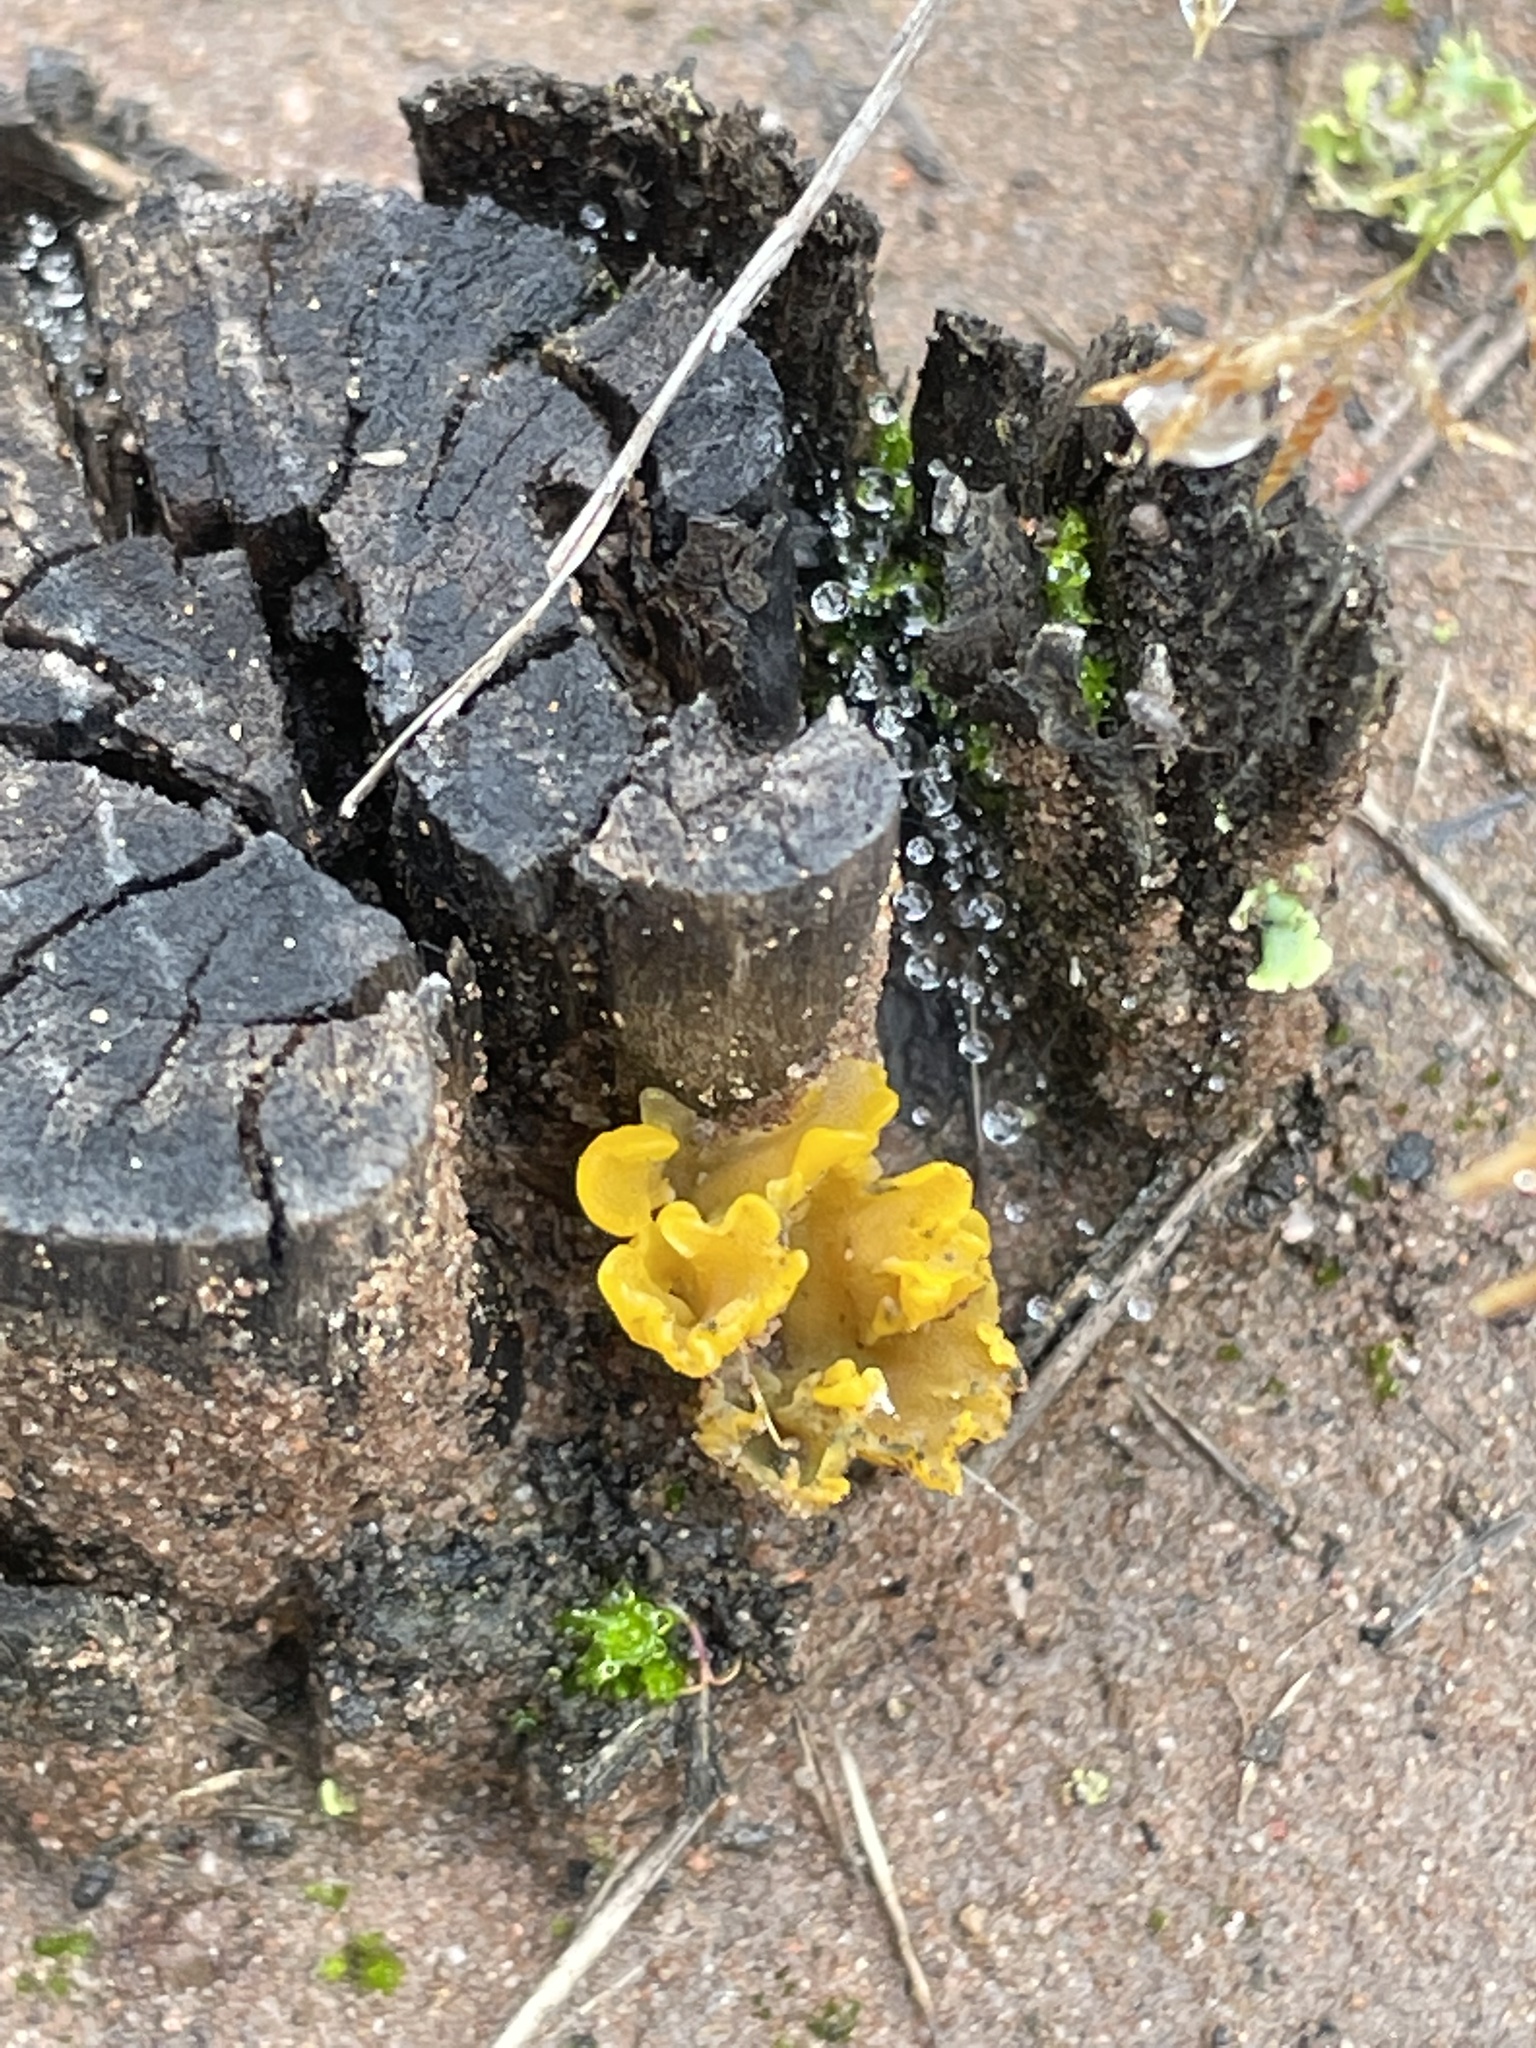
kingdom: Fungi
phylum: Basidiomycota
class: Dacrymycetes
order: Dacrymycetales
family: Dacrymycetaceae
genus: Dacrymyces
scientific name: Dacrymyces spathularius
